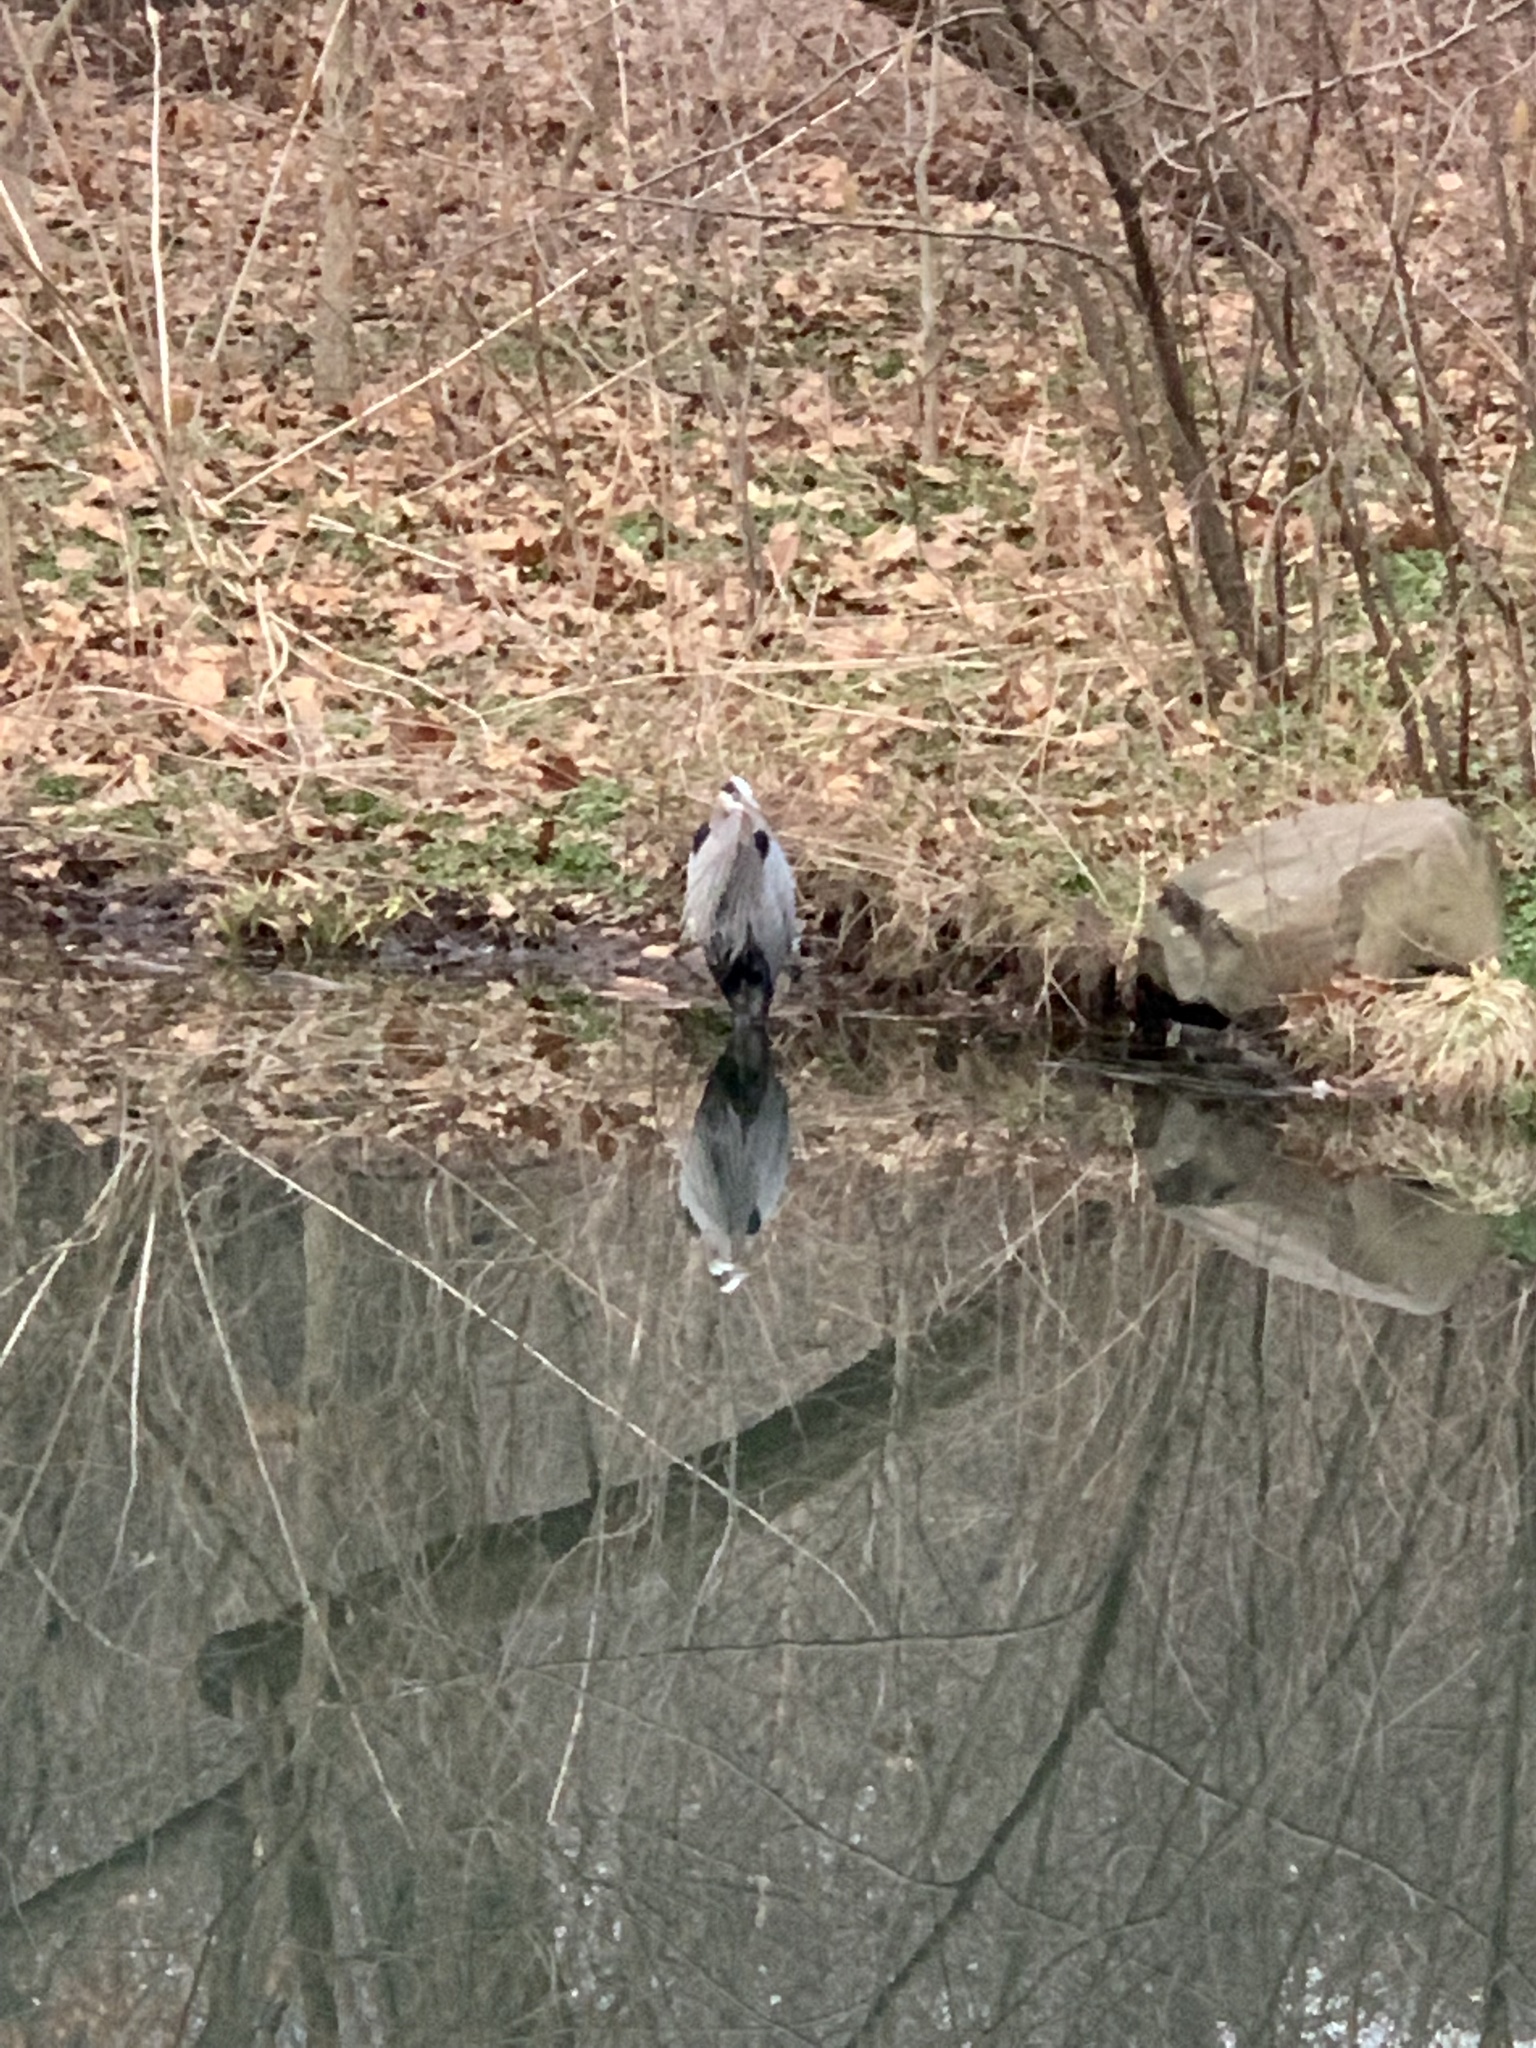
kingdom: Animalia
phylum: Chordata
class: Aves
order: Pelecaniformes
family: Ardeidae
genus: Ardea
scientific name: Ardea herodias
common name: Great blue heron
